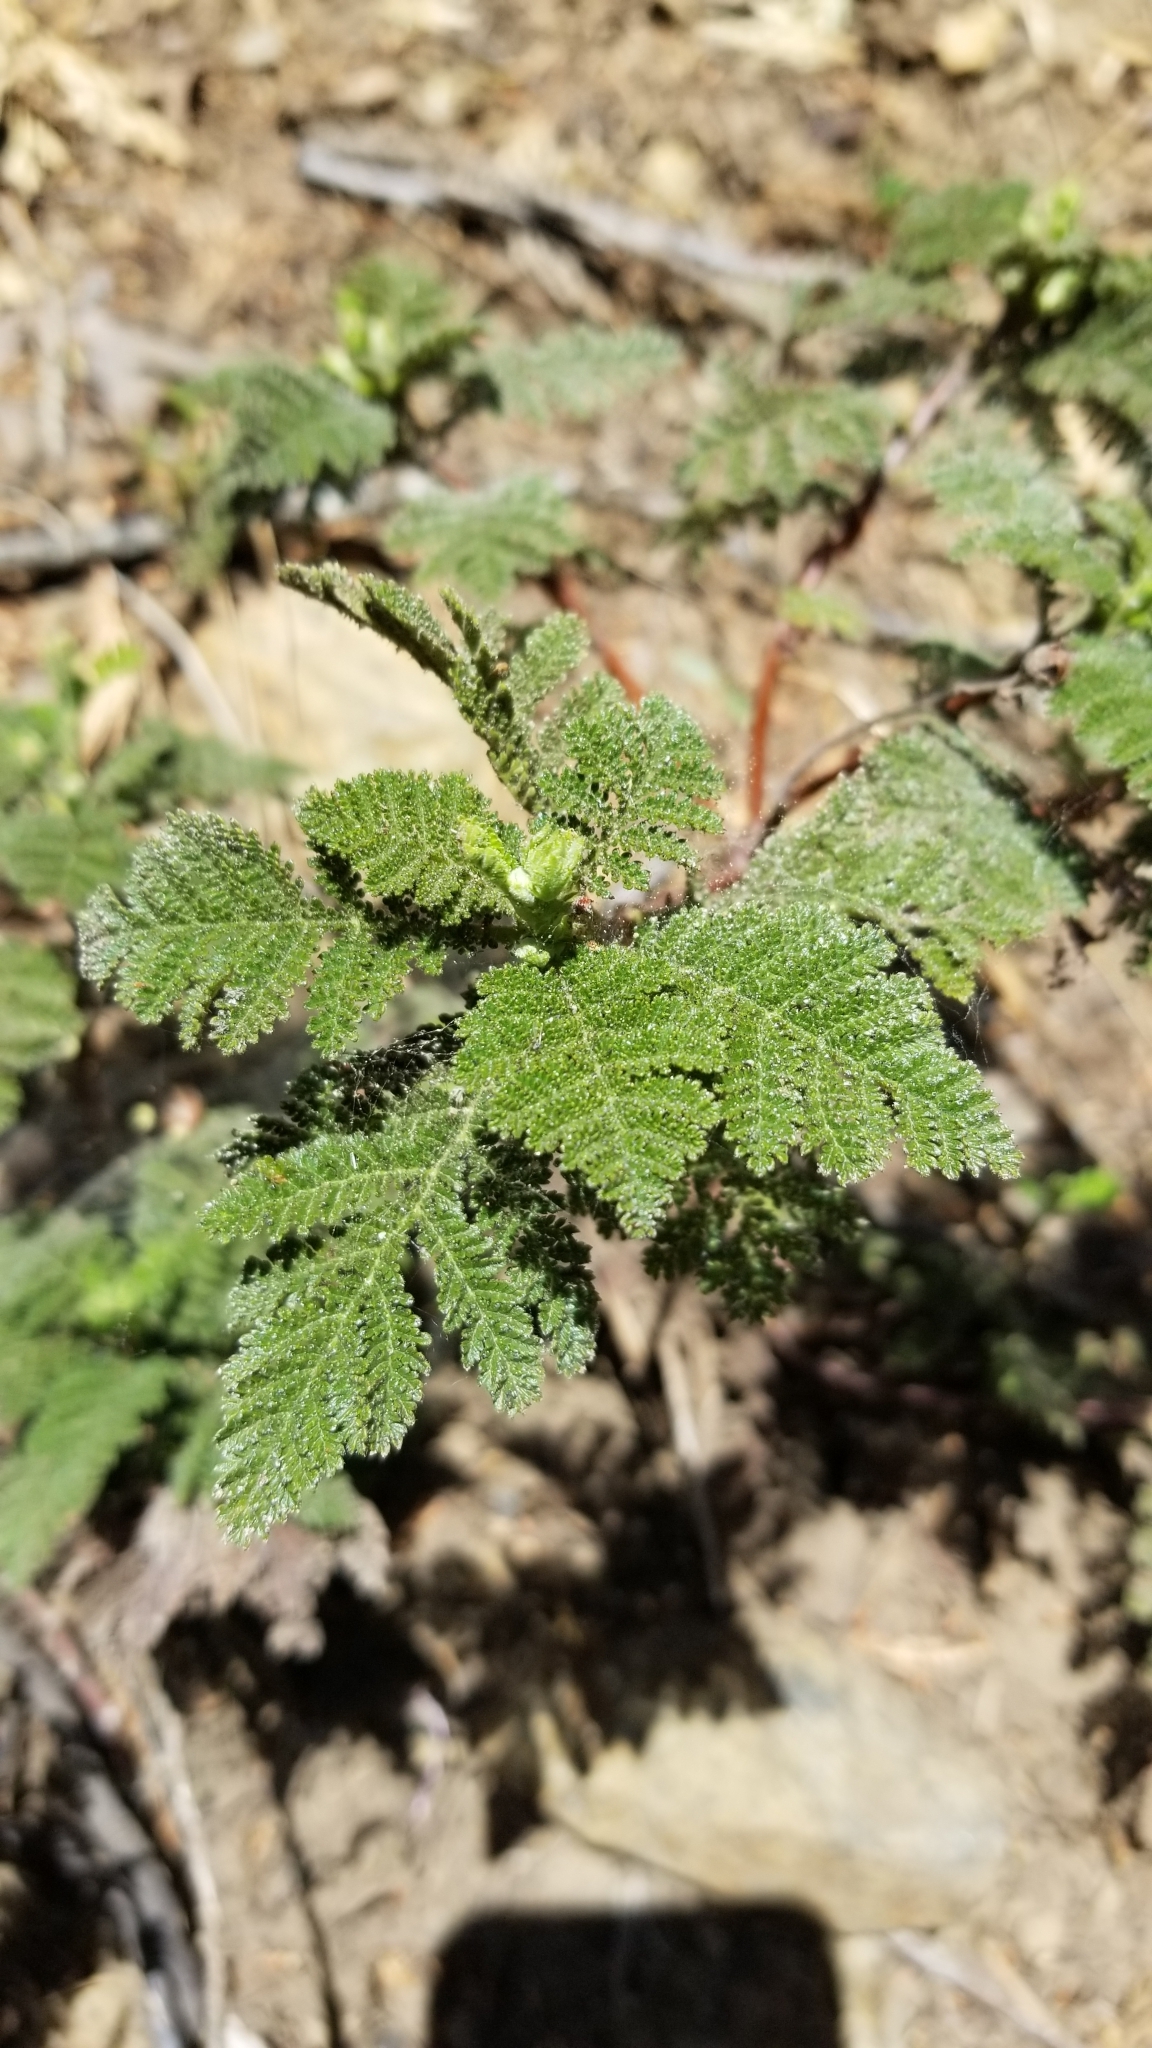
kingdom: Plantae
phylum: Tracheophyta
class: Magnoliopsida
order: Rosales
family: Rosaceae
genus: Chamaebatia
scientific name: Chamaebatia foliolosa
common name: Mountain misery
